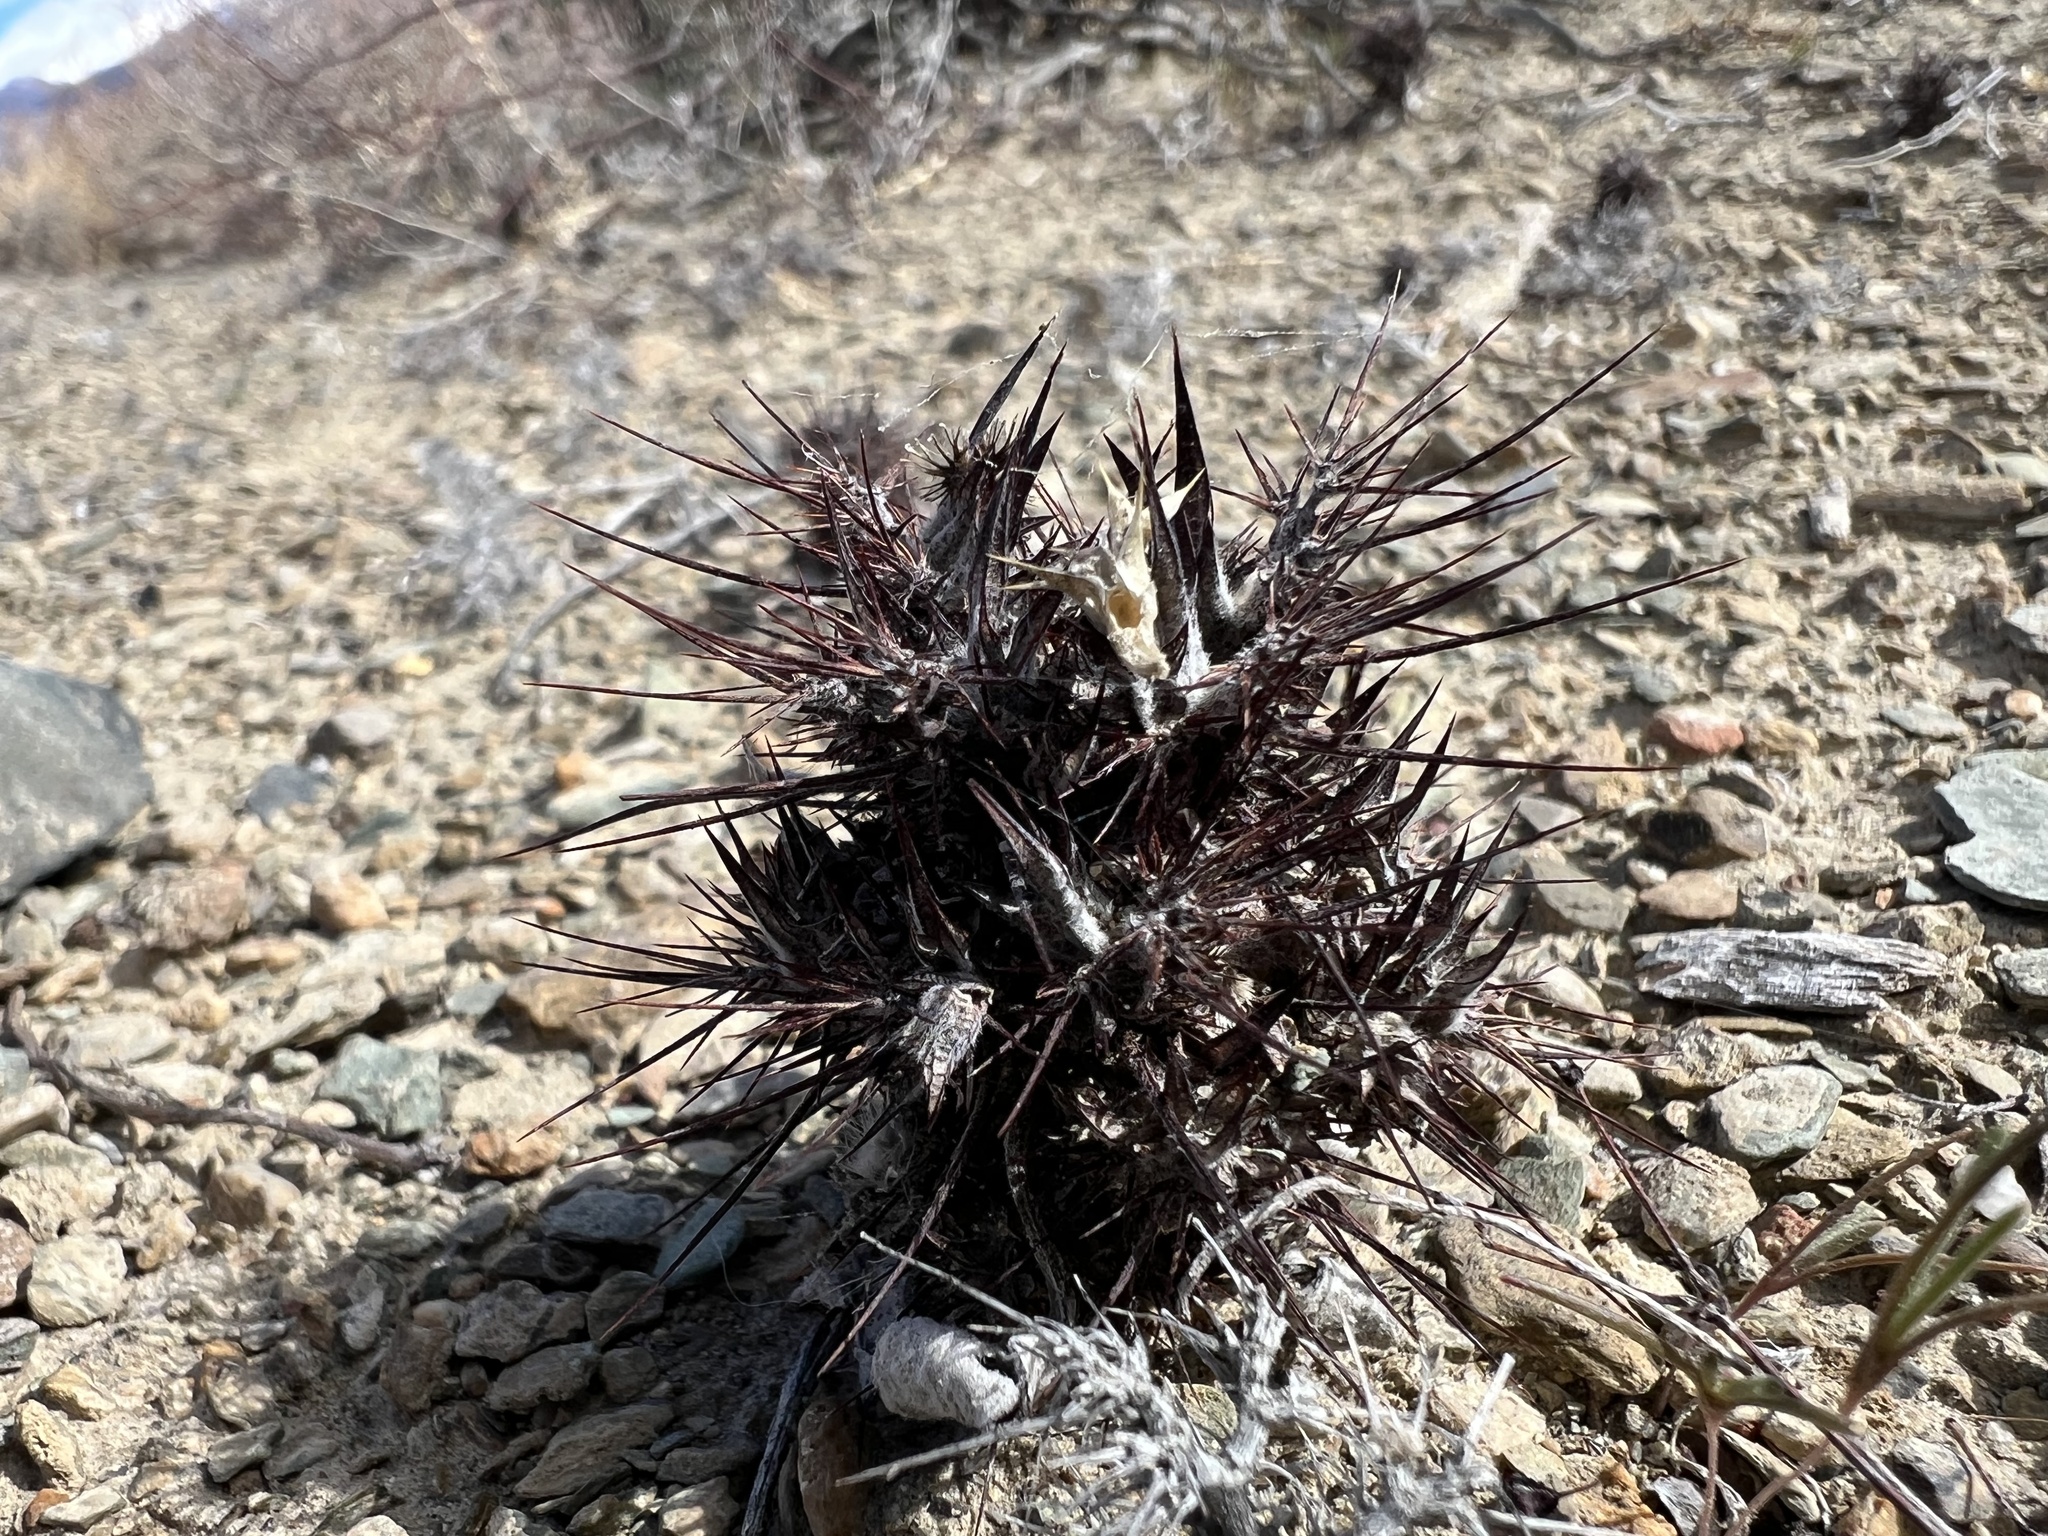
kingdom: Plantae
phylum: Tracheophyta
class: Magnoliopsida
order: Caryophyllales
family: Polygonaceae
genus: Chorizanthe
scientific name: Chorizanthe rigida
